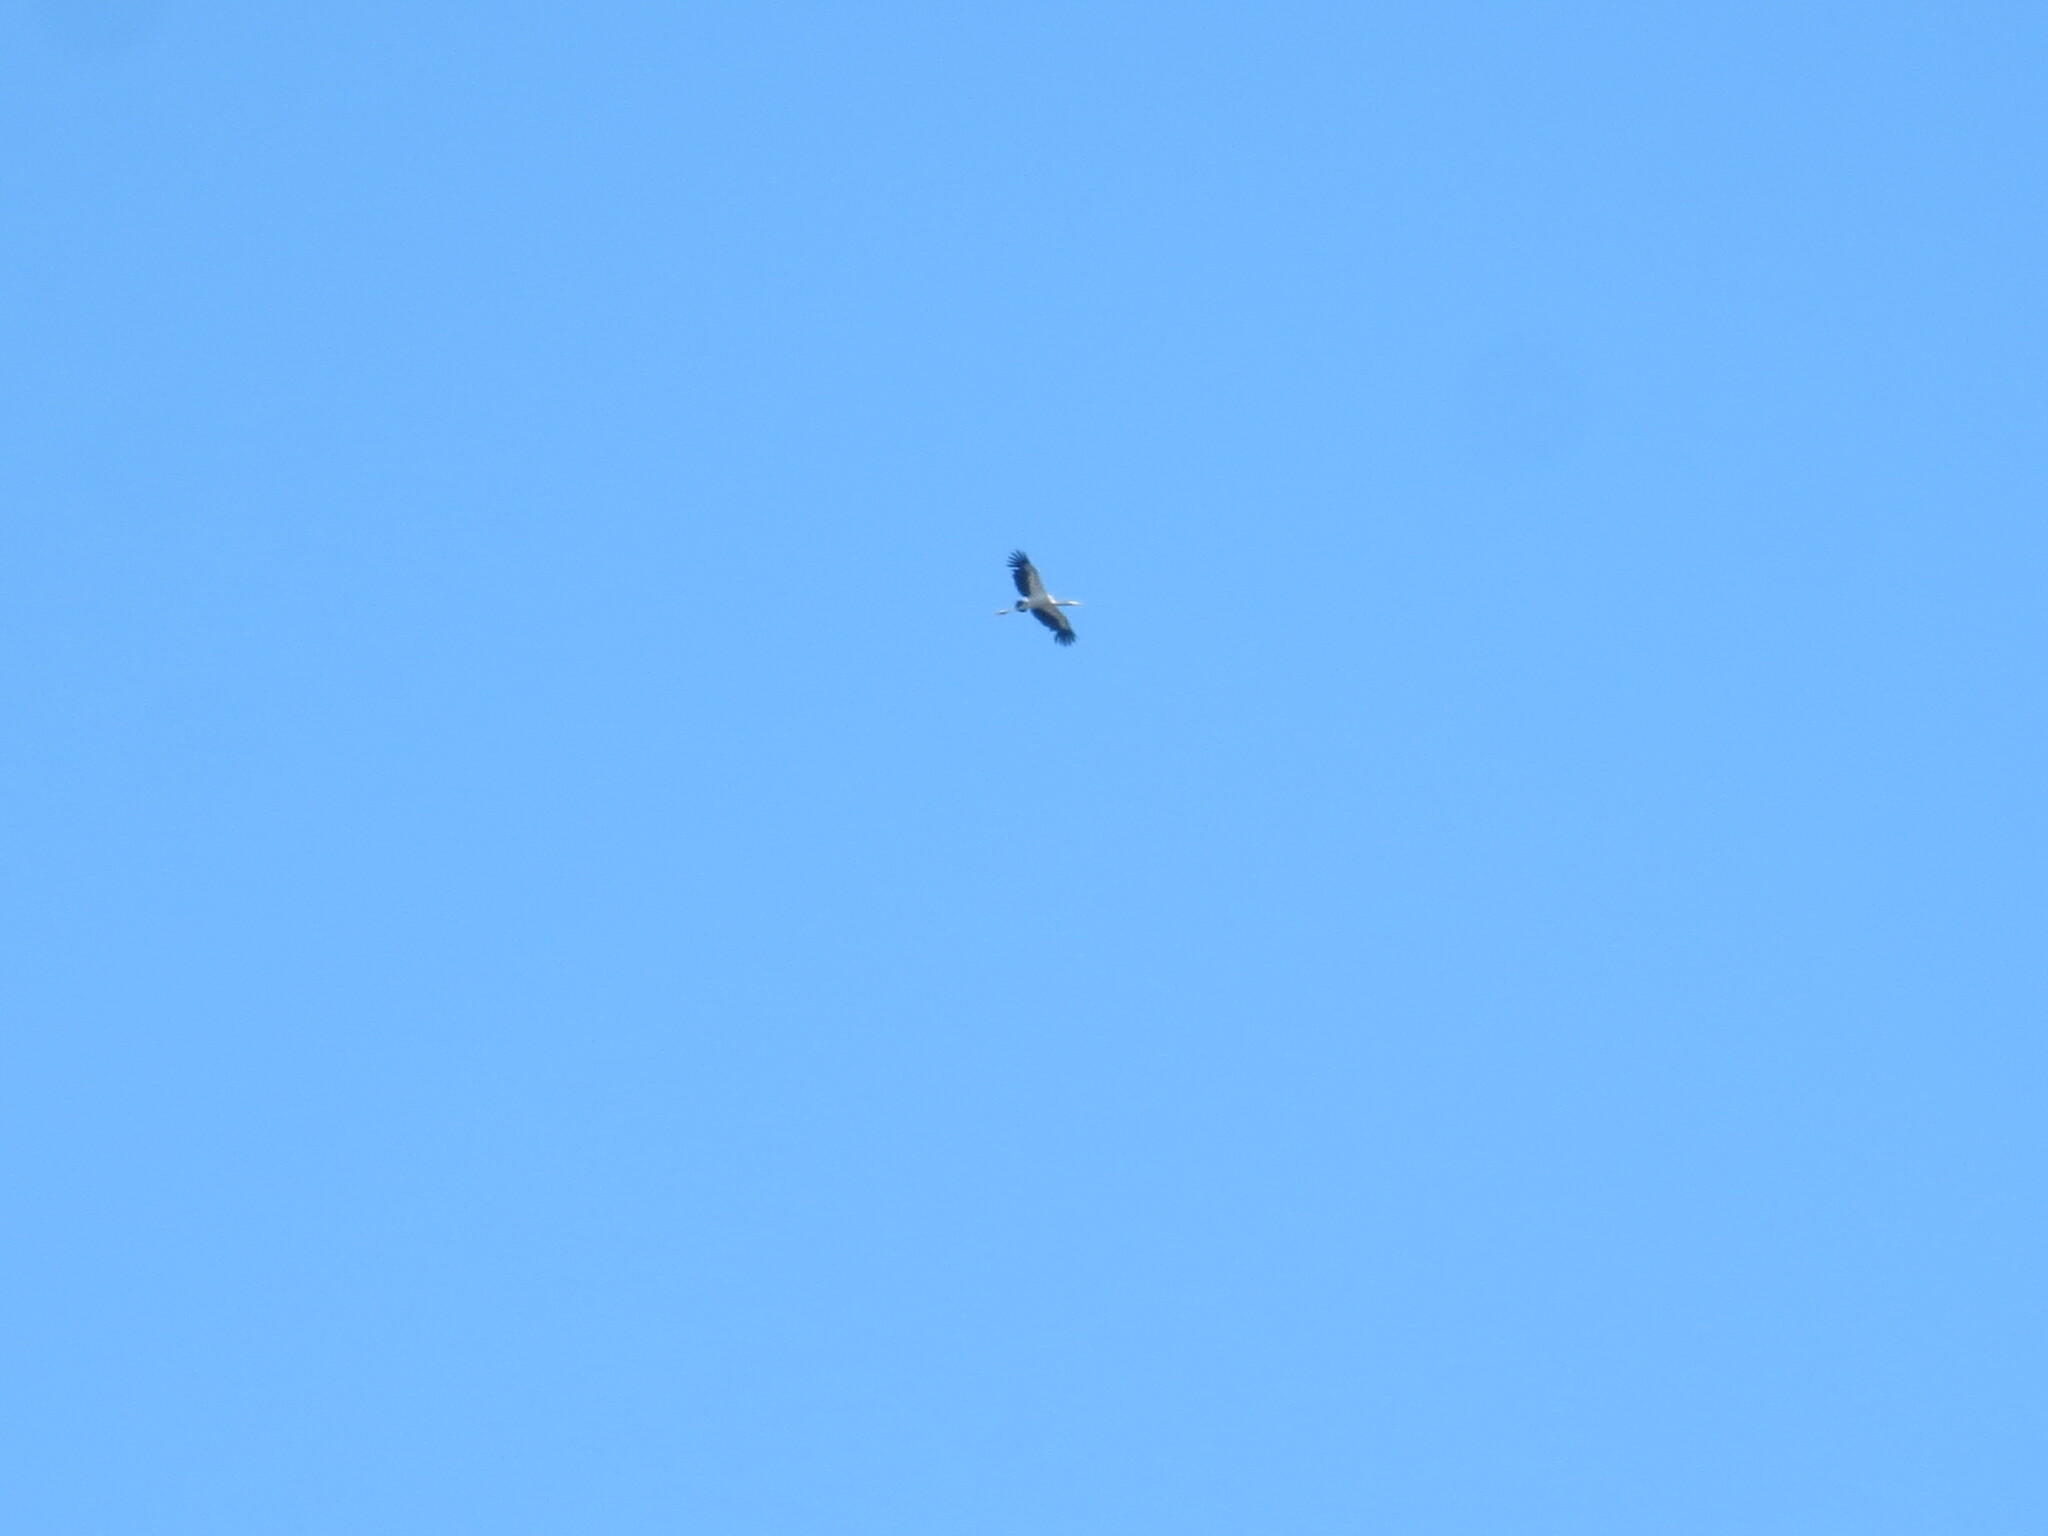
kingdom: Animalia
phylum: Chordata
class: Aves
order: Ciconiiformes
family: Ciconiidae
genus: Mycteria
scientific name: Mycteria americana
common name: Wood stork
